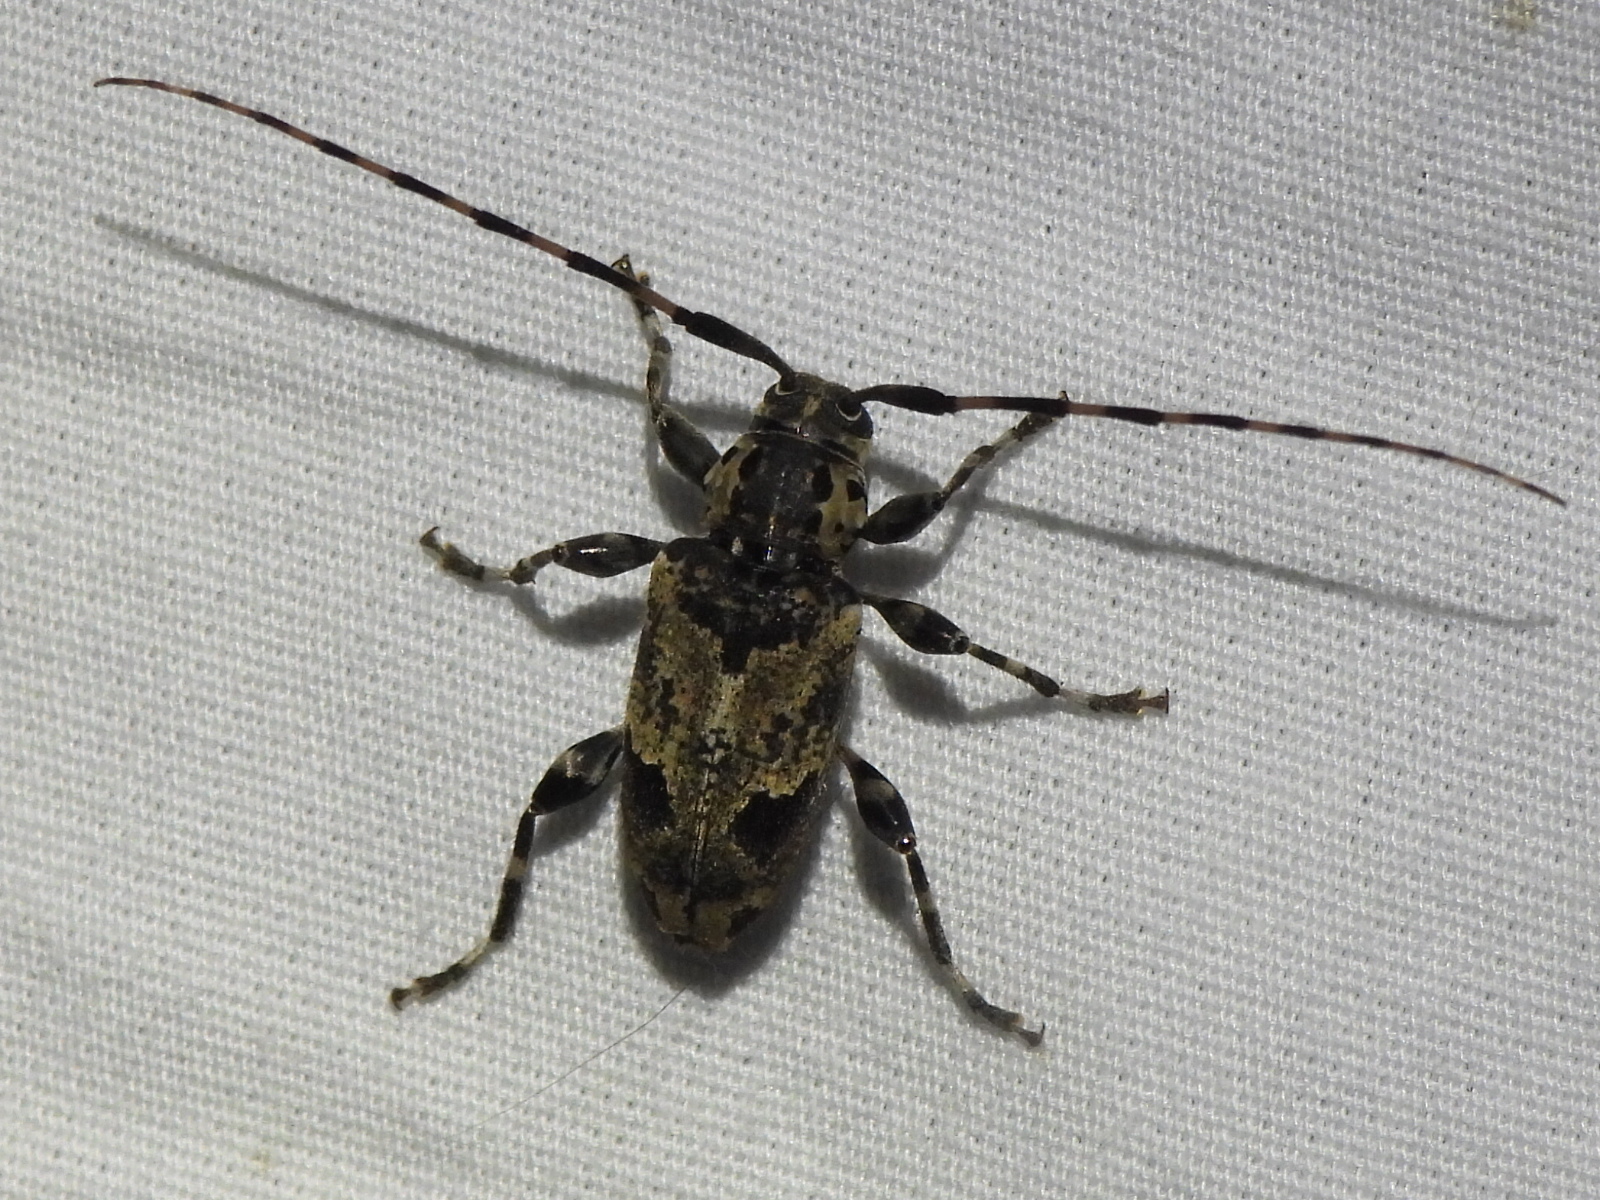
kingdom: Animalia
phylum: Arthropoda
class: Insecta
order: Coleoptera
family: Cerambycidae
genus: Graphisurus
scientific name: Graphisurus triangulifer
